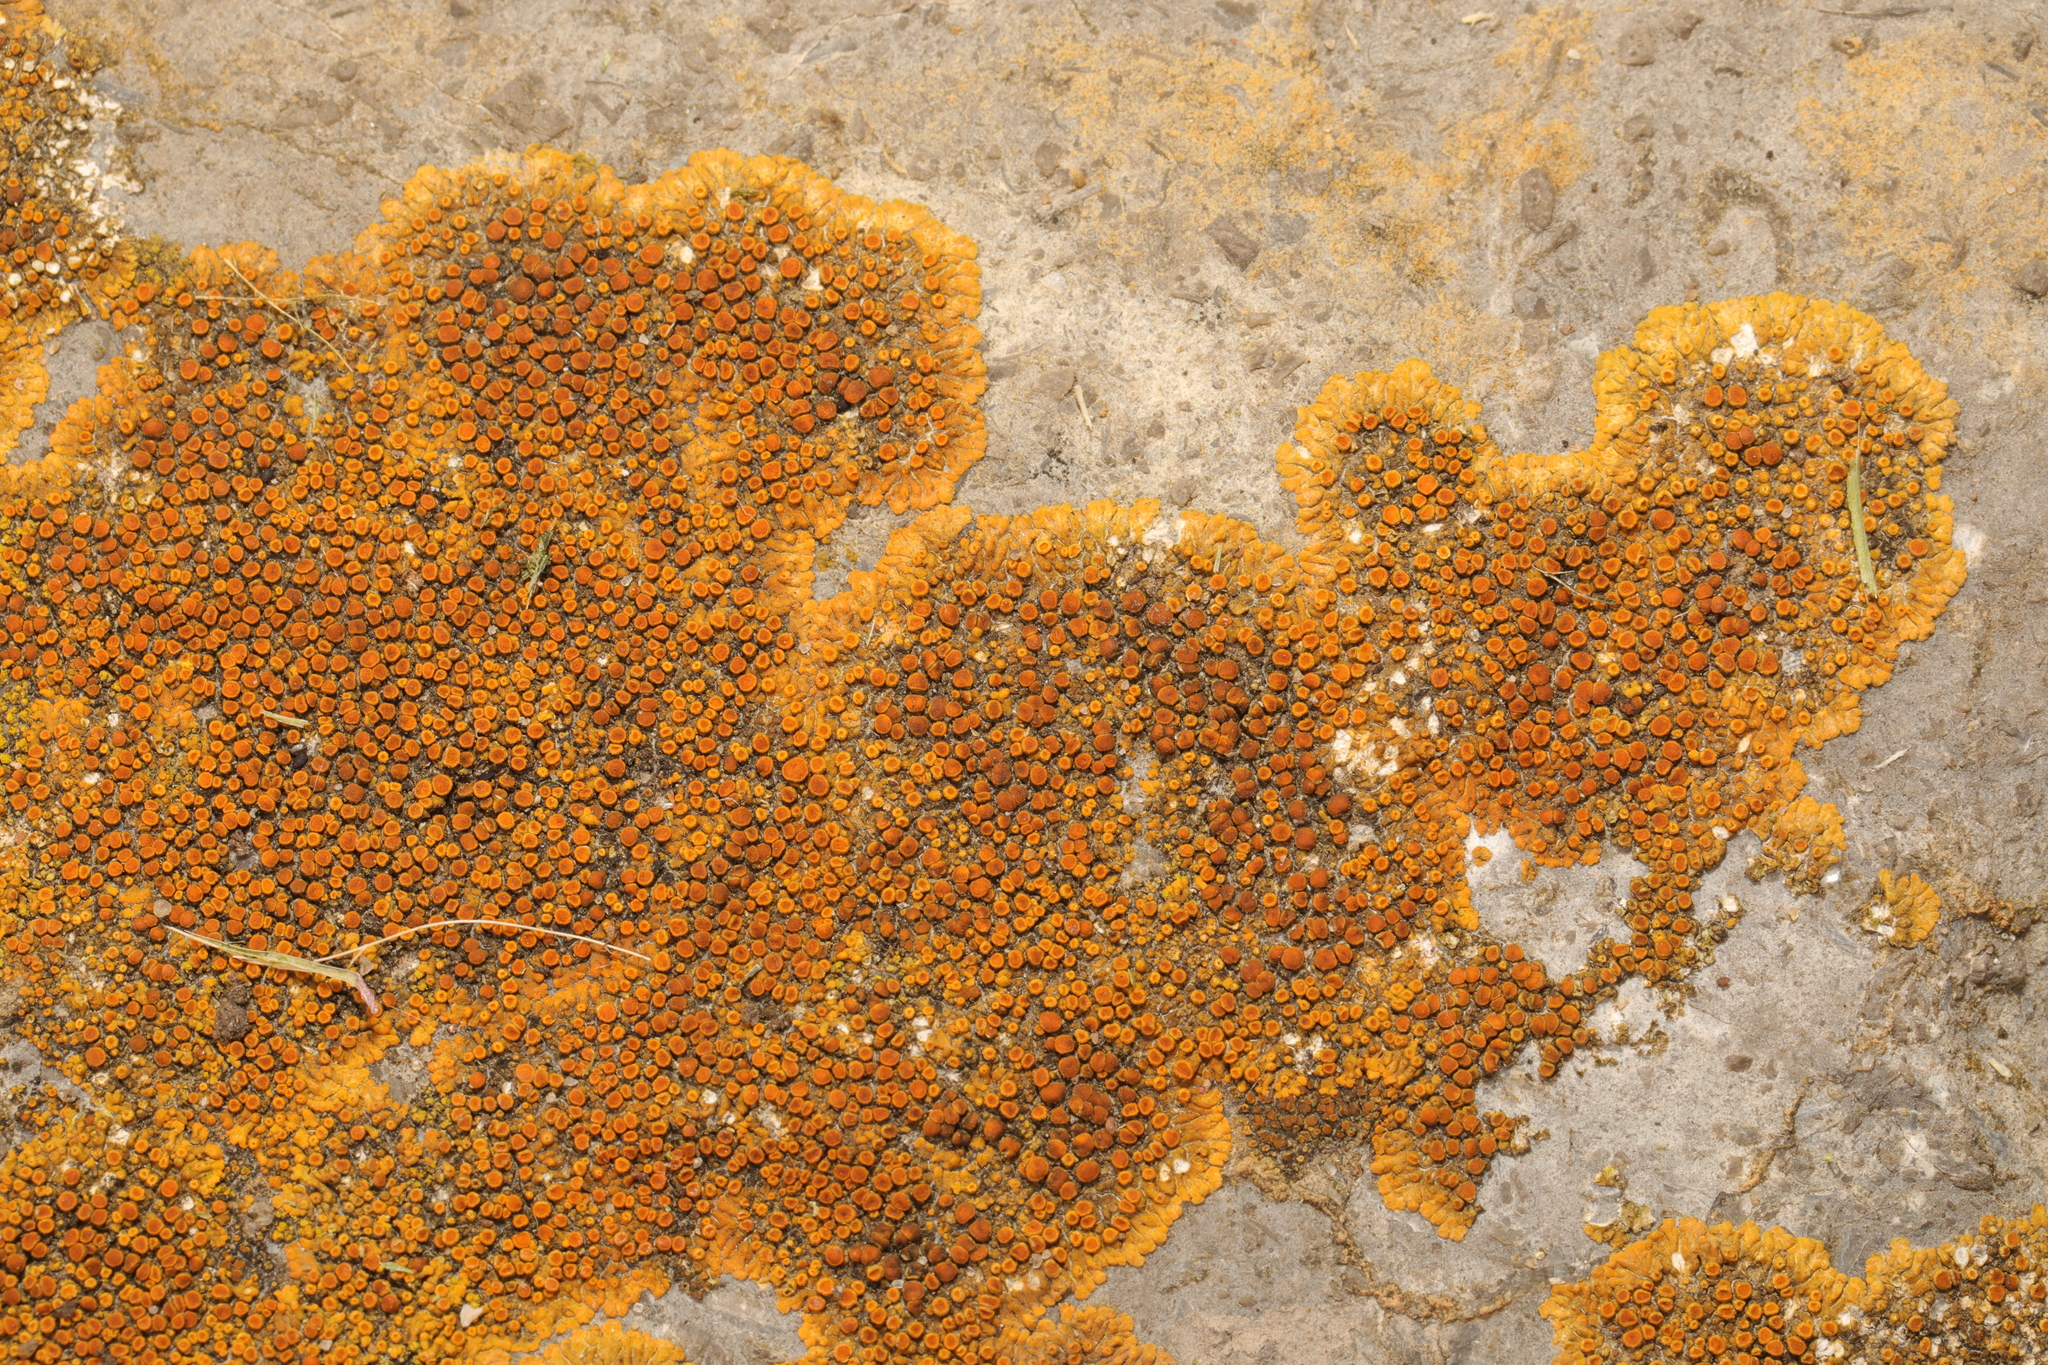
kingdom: Fungi
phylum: Ascomycota
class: Lecanoromycetes
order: Teloschistales
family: Teloschistaceae
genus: Calogaya
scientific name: Calogaya saxicola
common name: Rock jewel lichen
